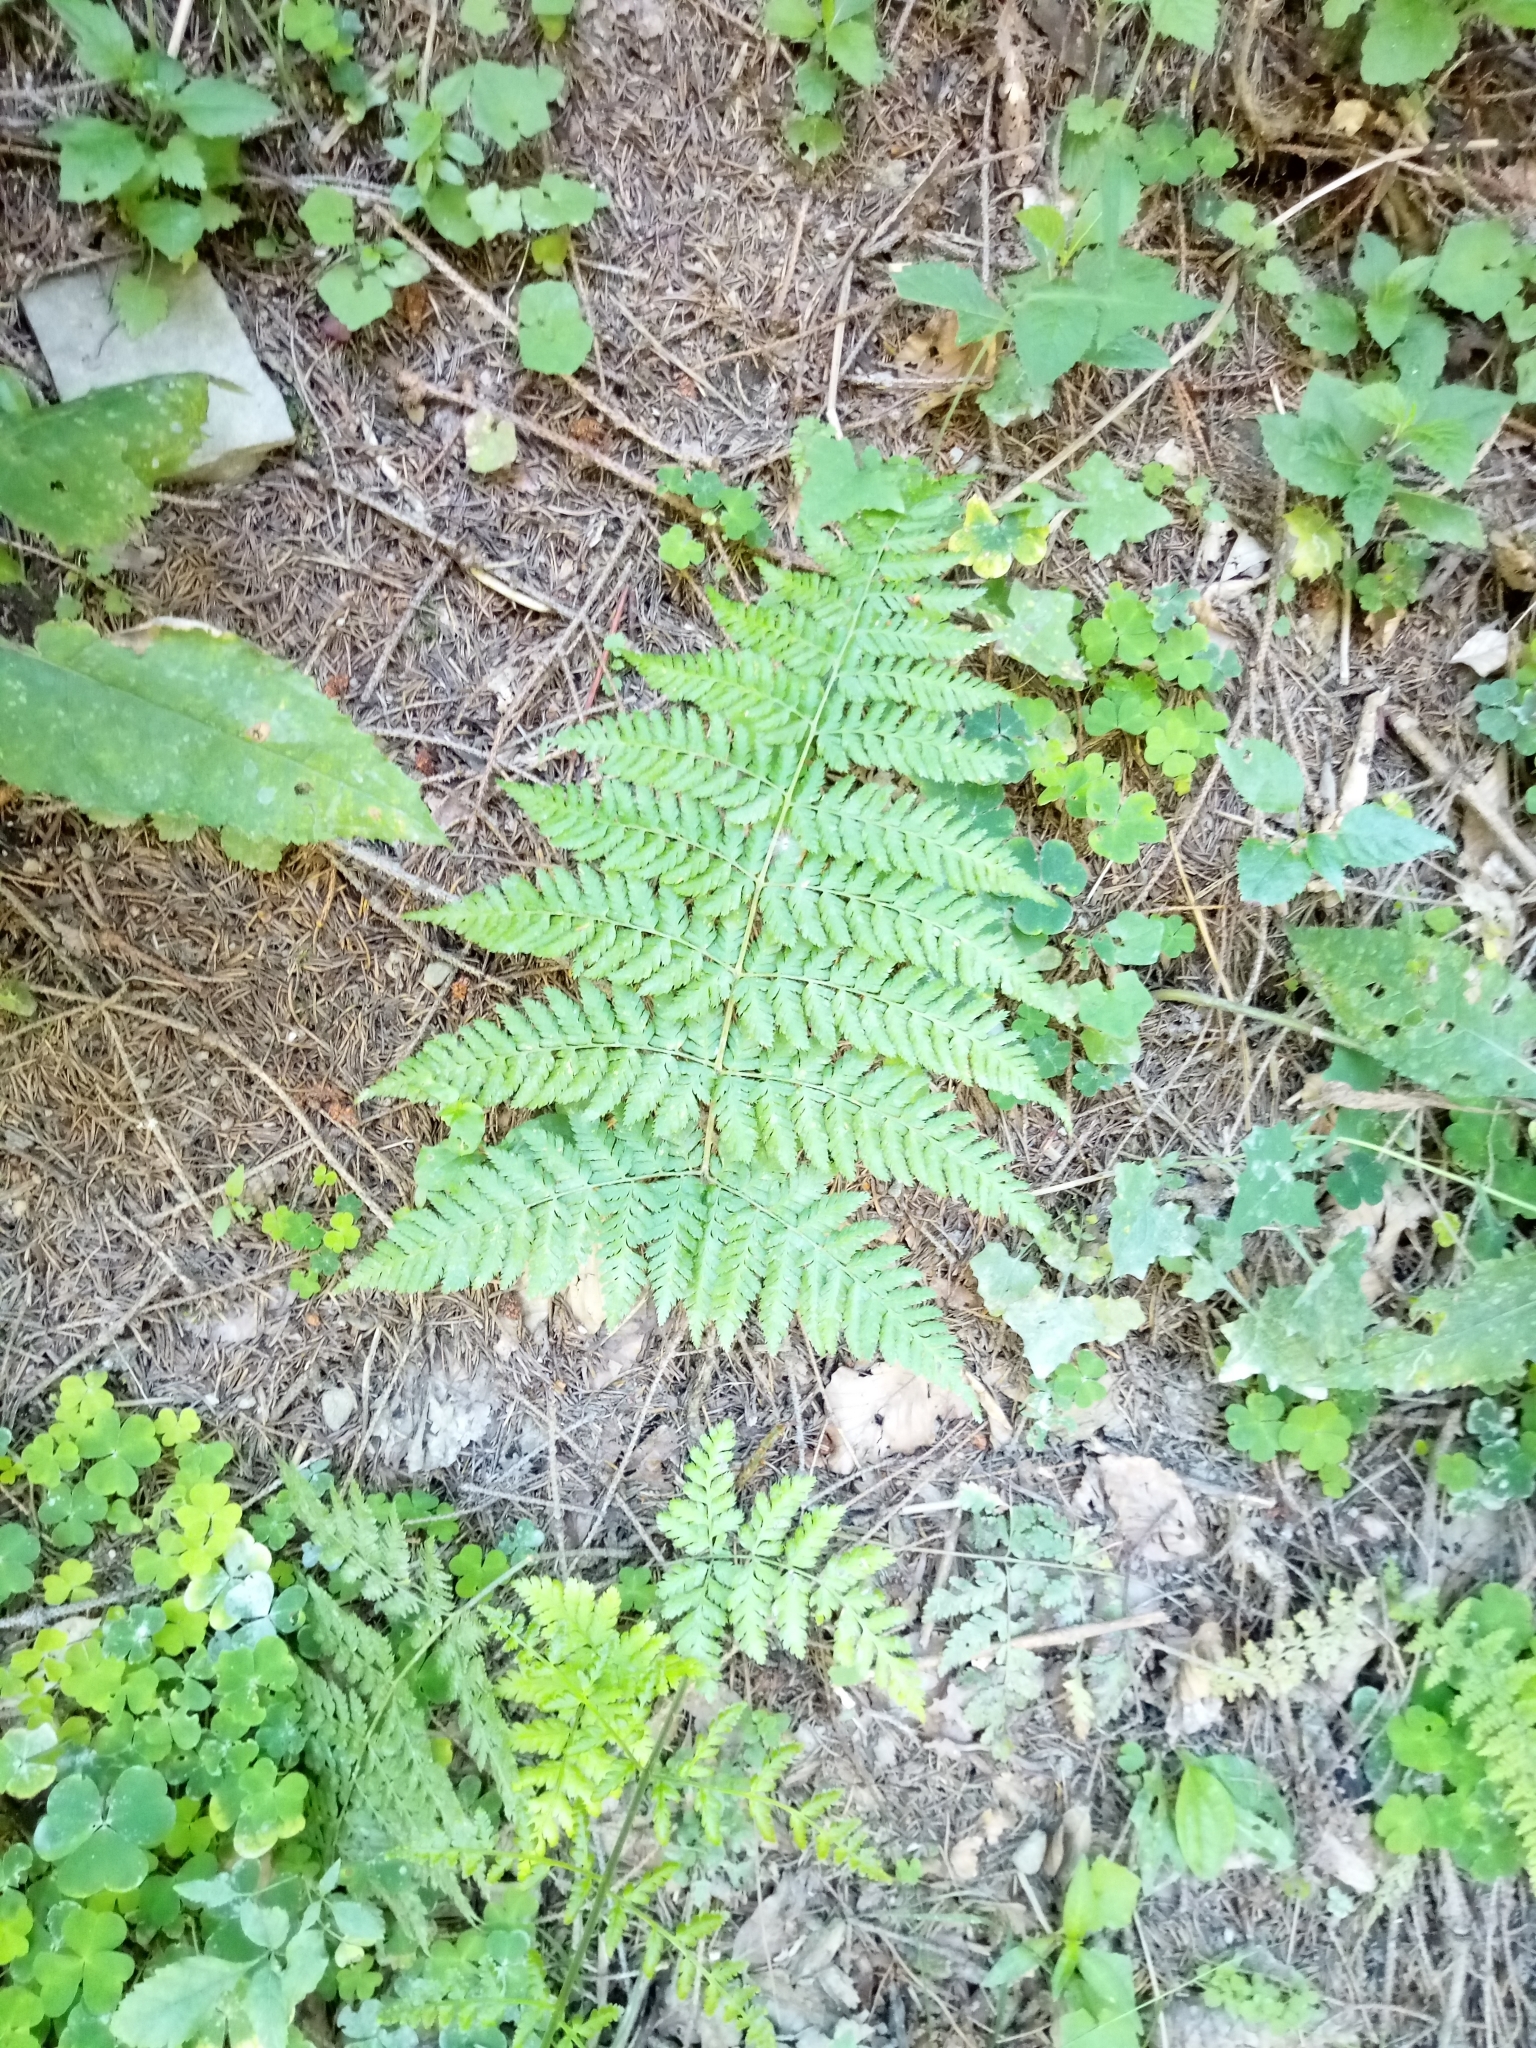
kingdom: Plantae
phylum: Tracheophyta
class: Polypodiopsida
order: Polypodiales
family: Dryopteridaceae
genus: Dryopteris
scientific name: Dryopteris dilatata
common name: Broad buckler-fern
